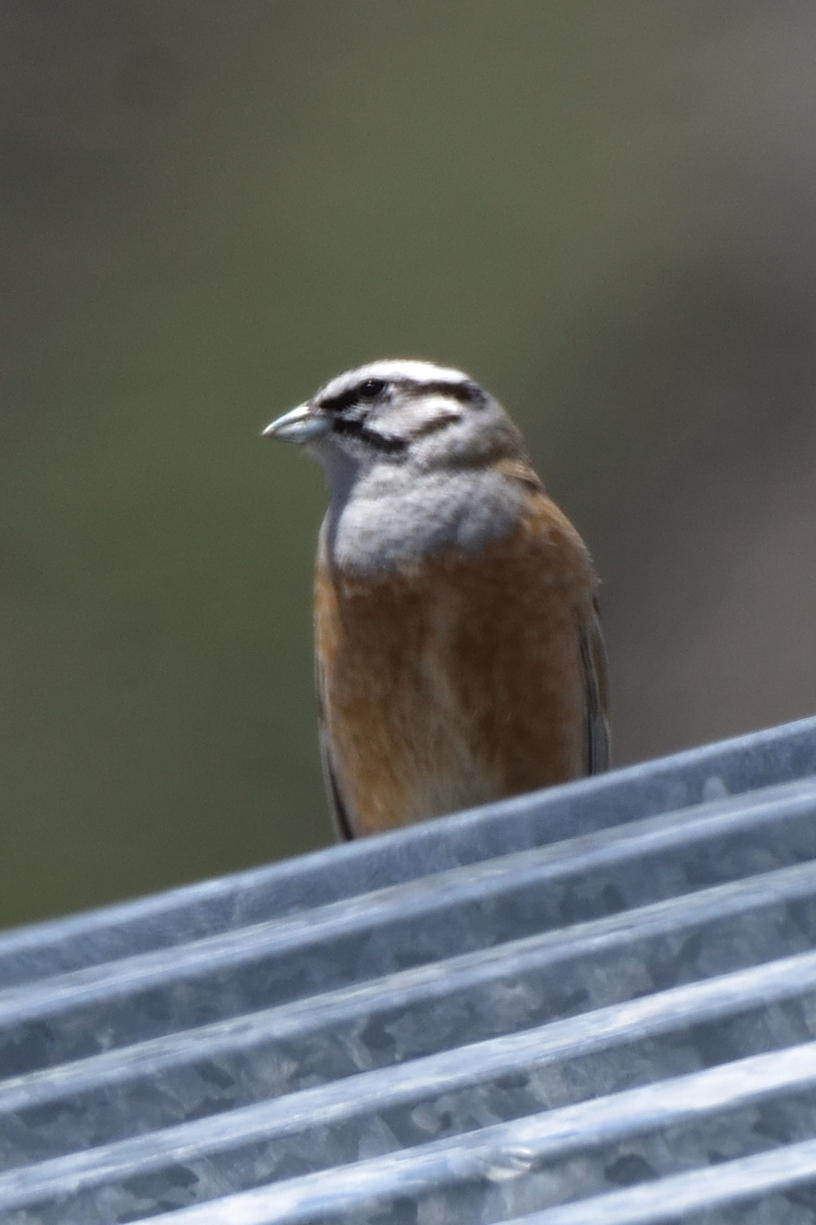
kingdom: Animalia
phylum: Chordata
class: Aves
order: Passeriformes
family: Emberizidae
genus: Emberiza
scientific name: Emberiza cia
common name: Rock bunting
